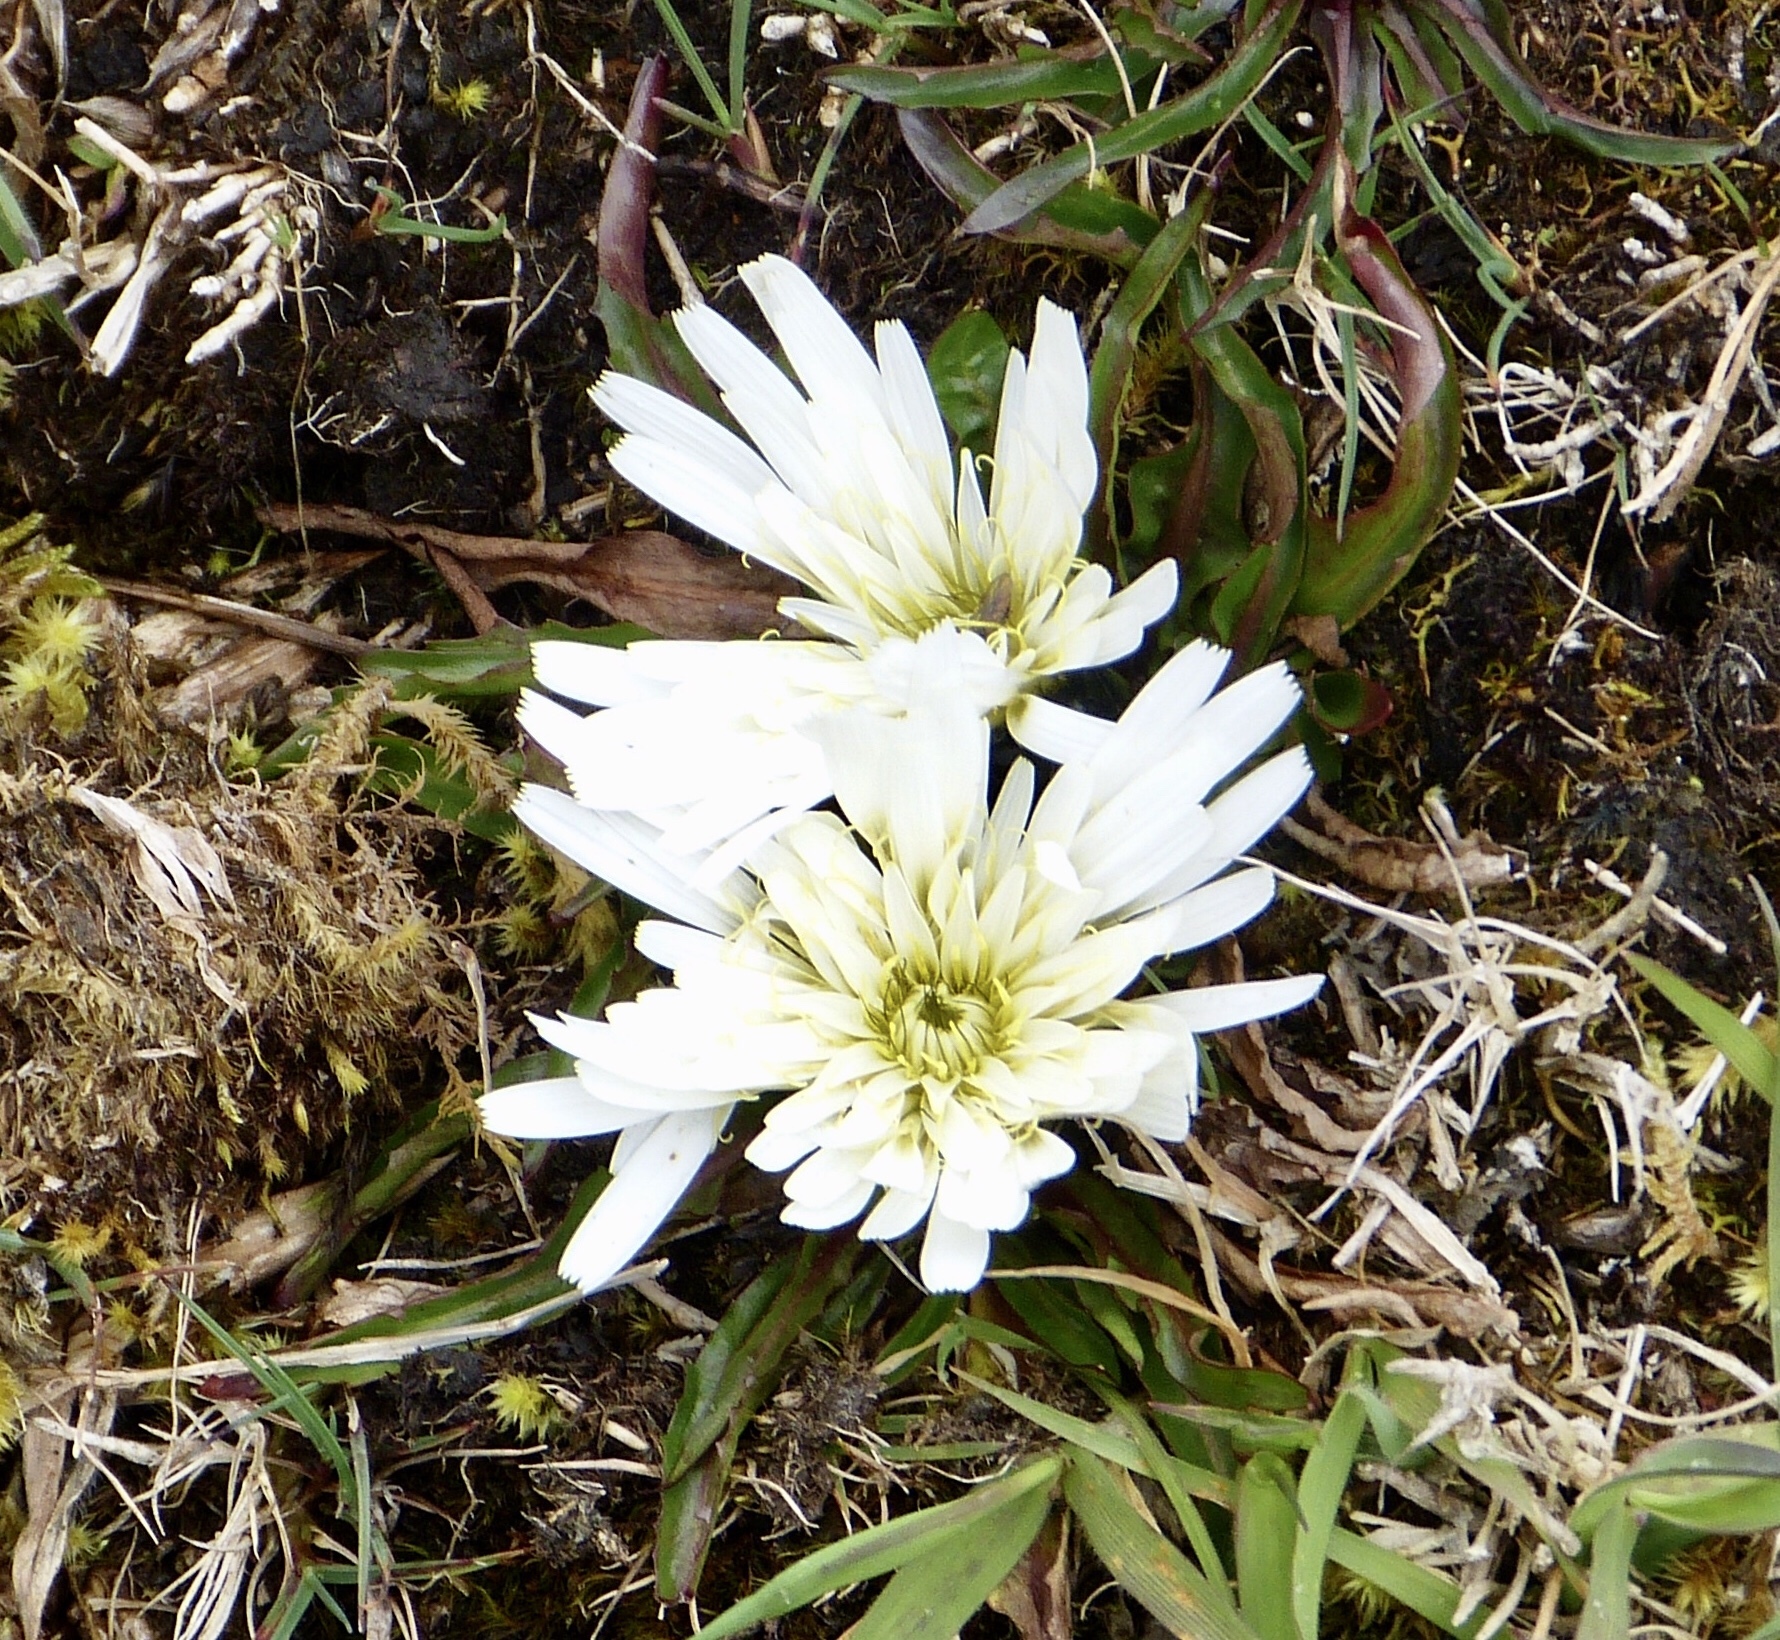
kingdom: Plantae
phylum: Tracheophyta
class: Magnoliopsida
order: Asterales
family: Asteraceae
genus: Hypochaeris
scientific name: Hypochaeris sessiliflora
